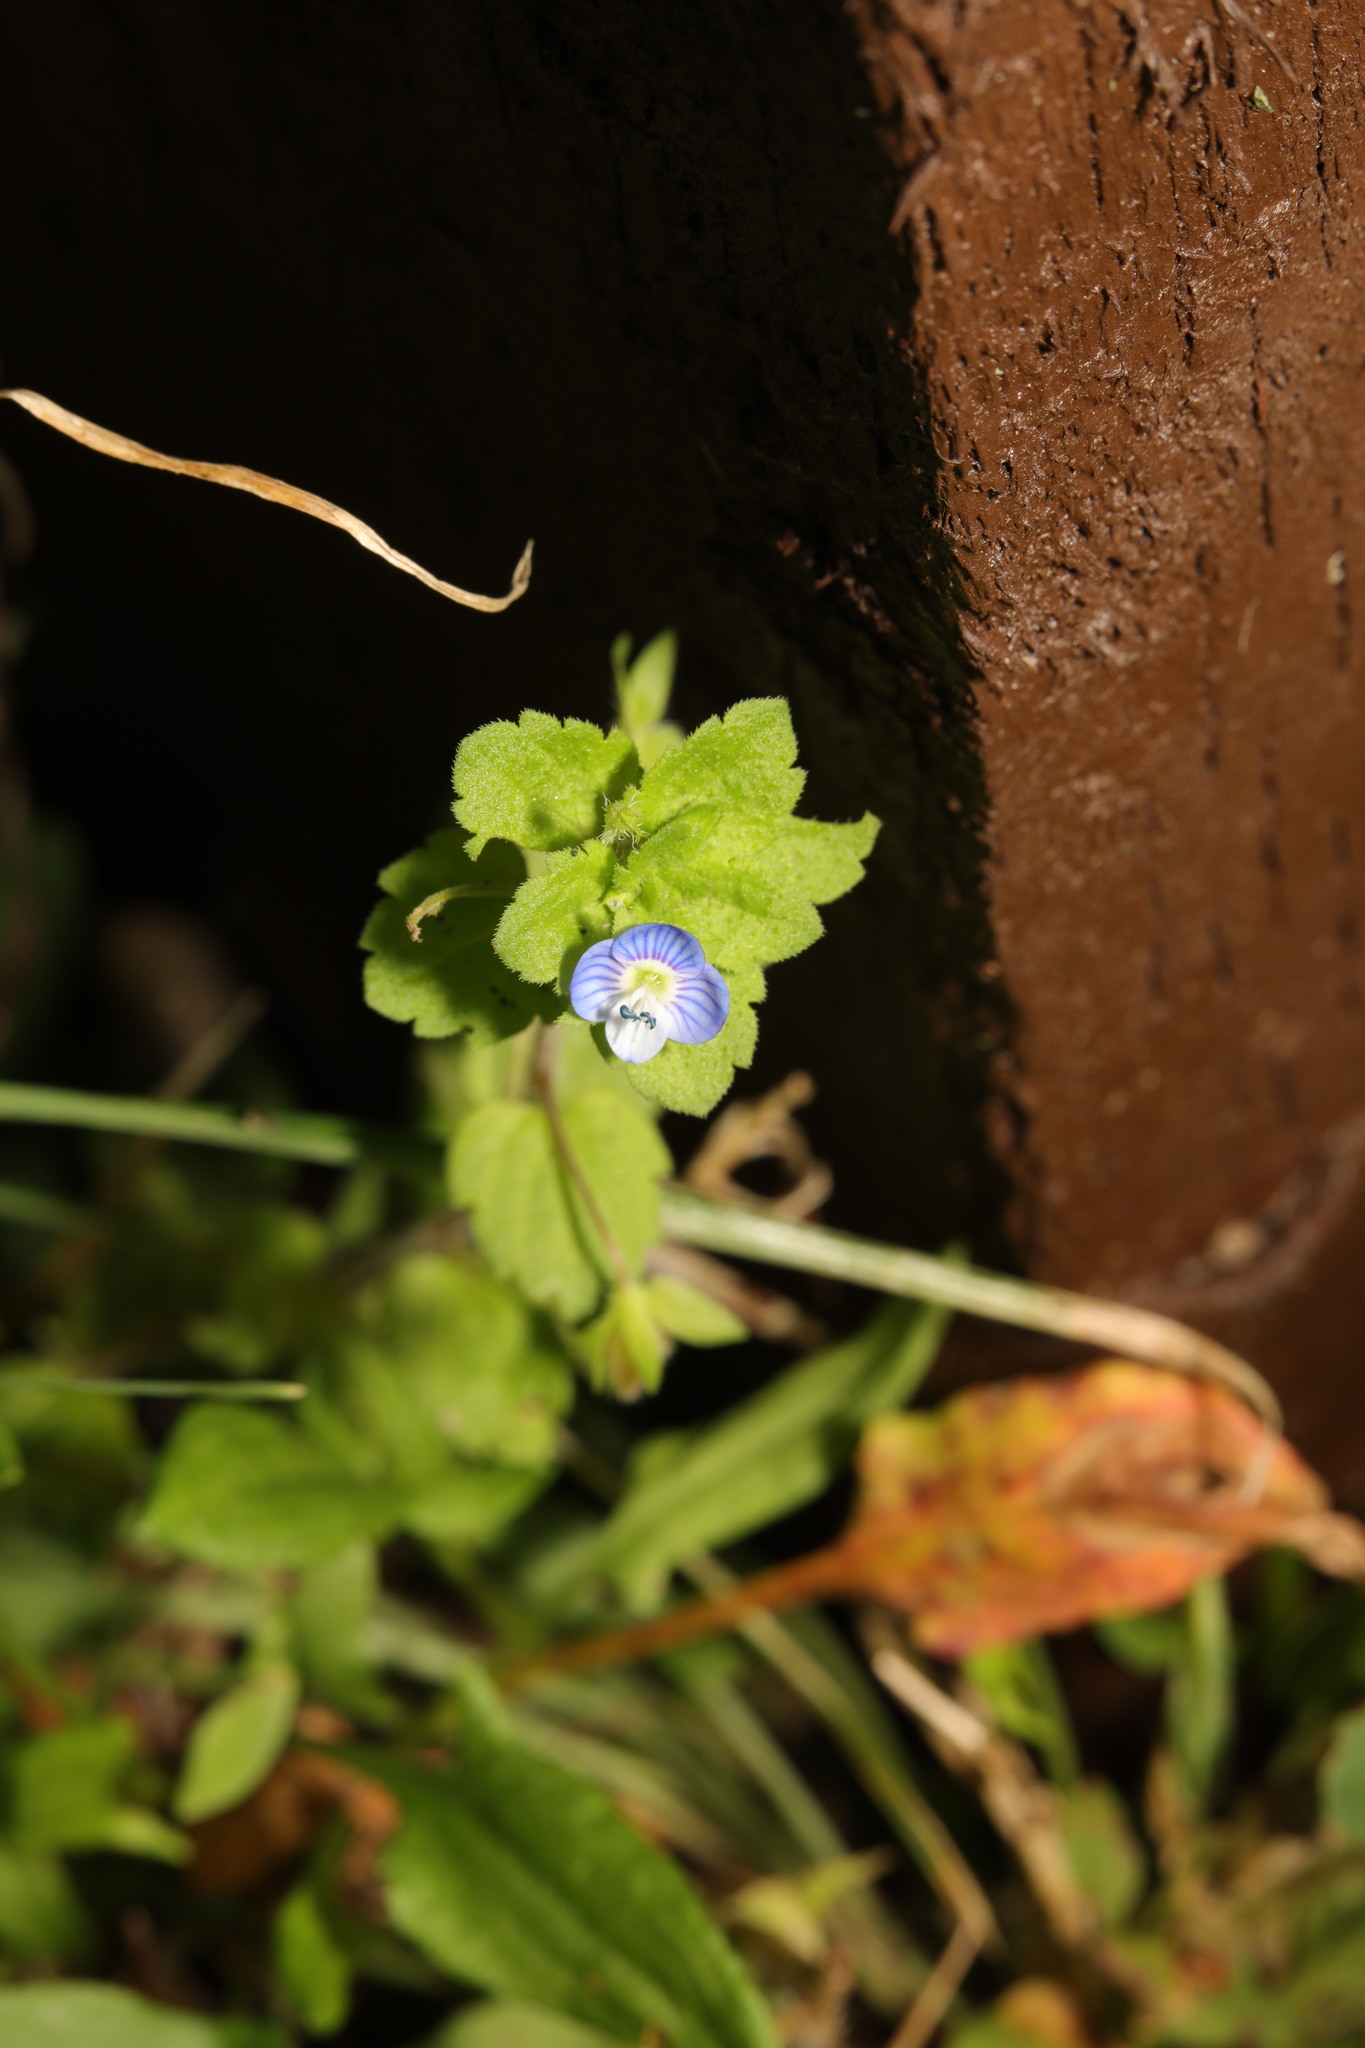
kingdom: Plantae
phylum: Tracheophyta
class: Magnoliopsida
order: Lamiales
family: Plantaginaceae
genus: Veronica
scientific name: Veronica persica
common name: Common field-speedwell
